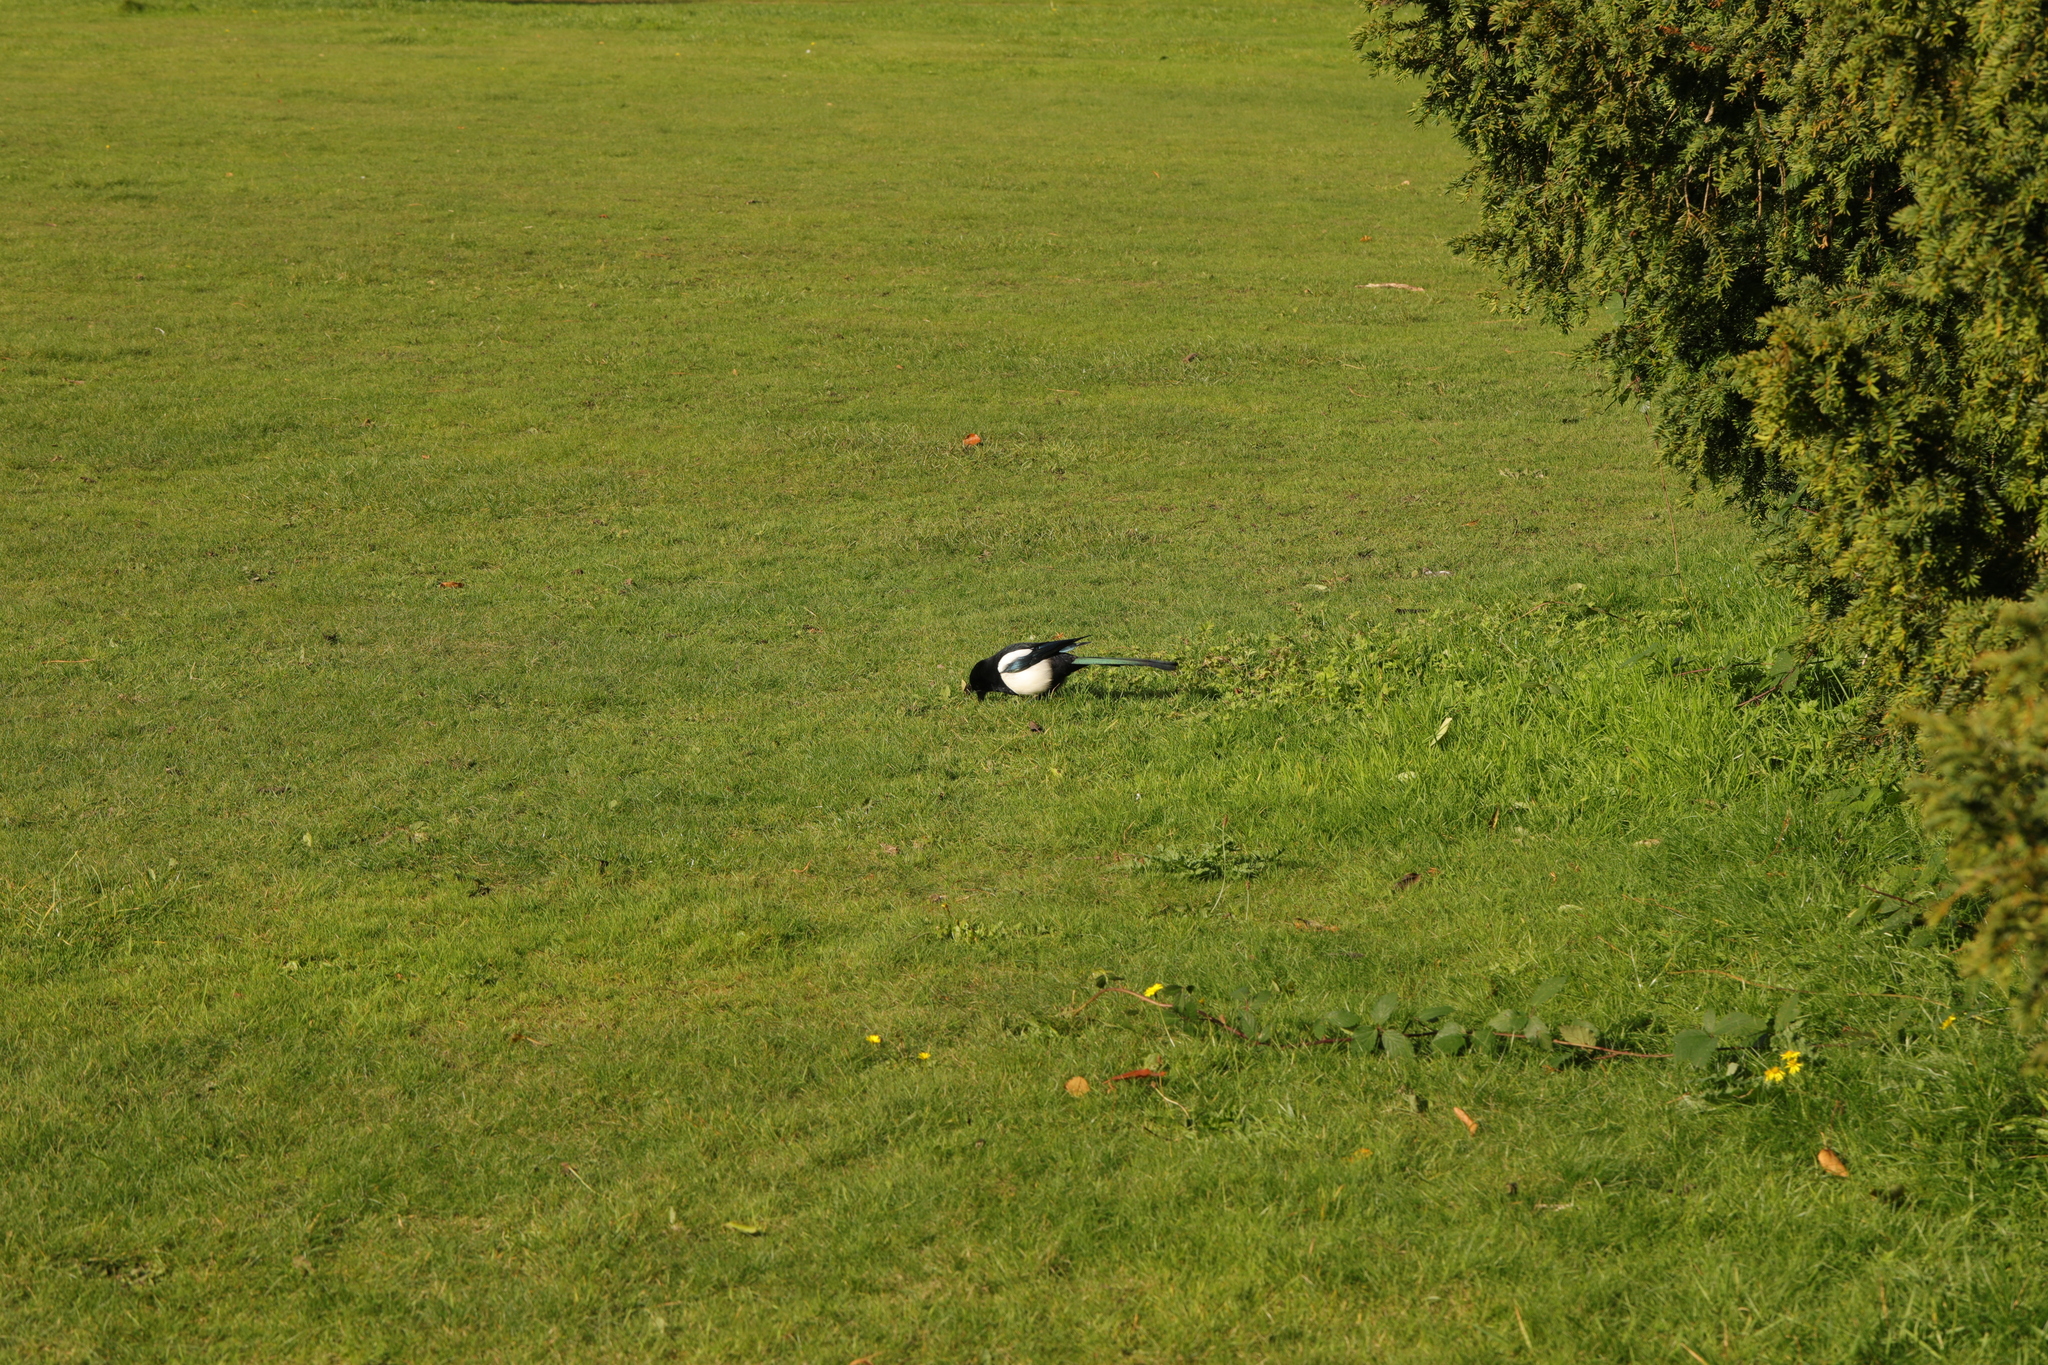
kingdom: Animalia
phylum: Chordata
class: Aves
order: Passeriformes
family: Corvidae
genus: Pica
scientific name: Pica pica
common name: Eurasian magpie
